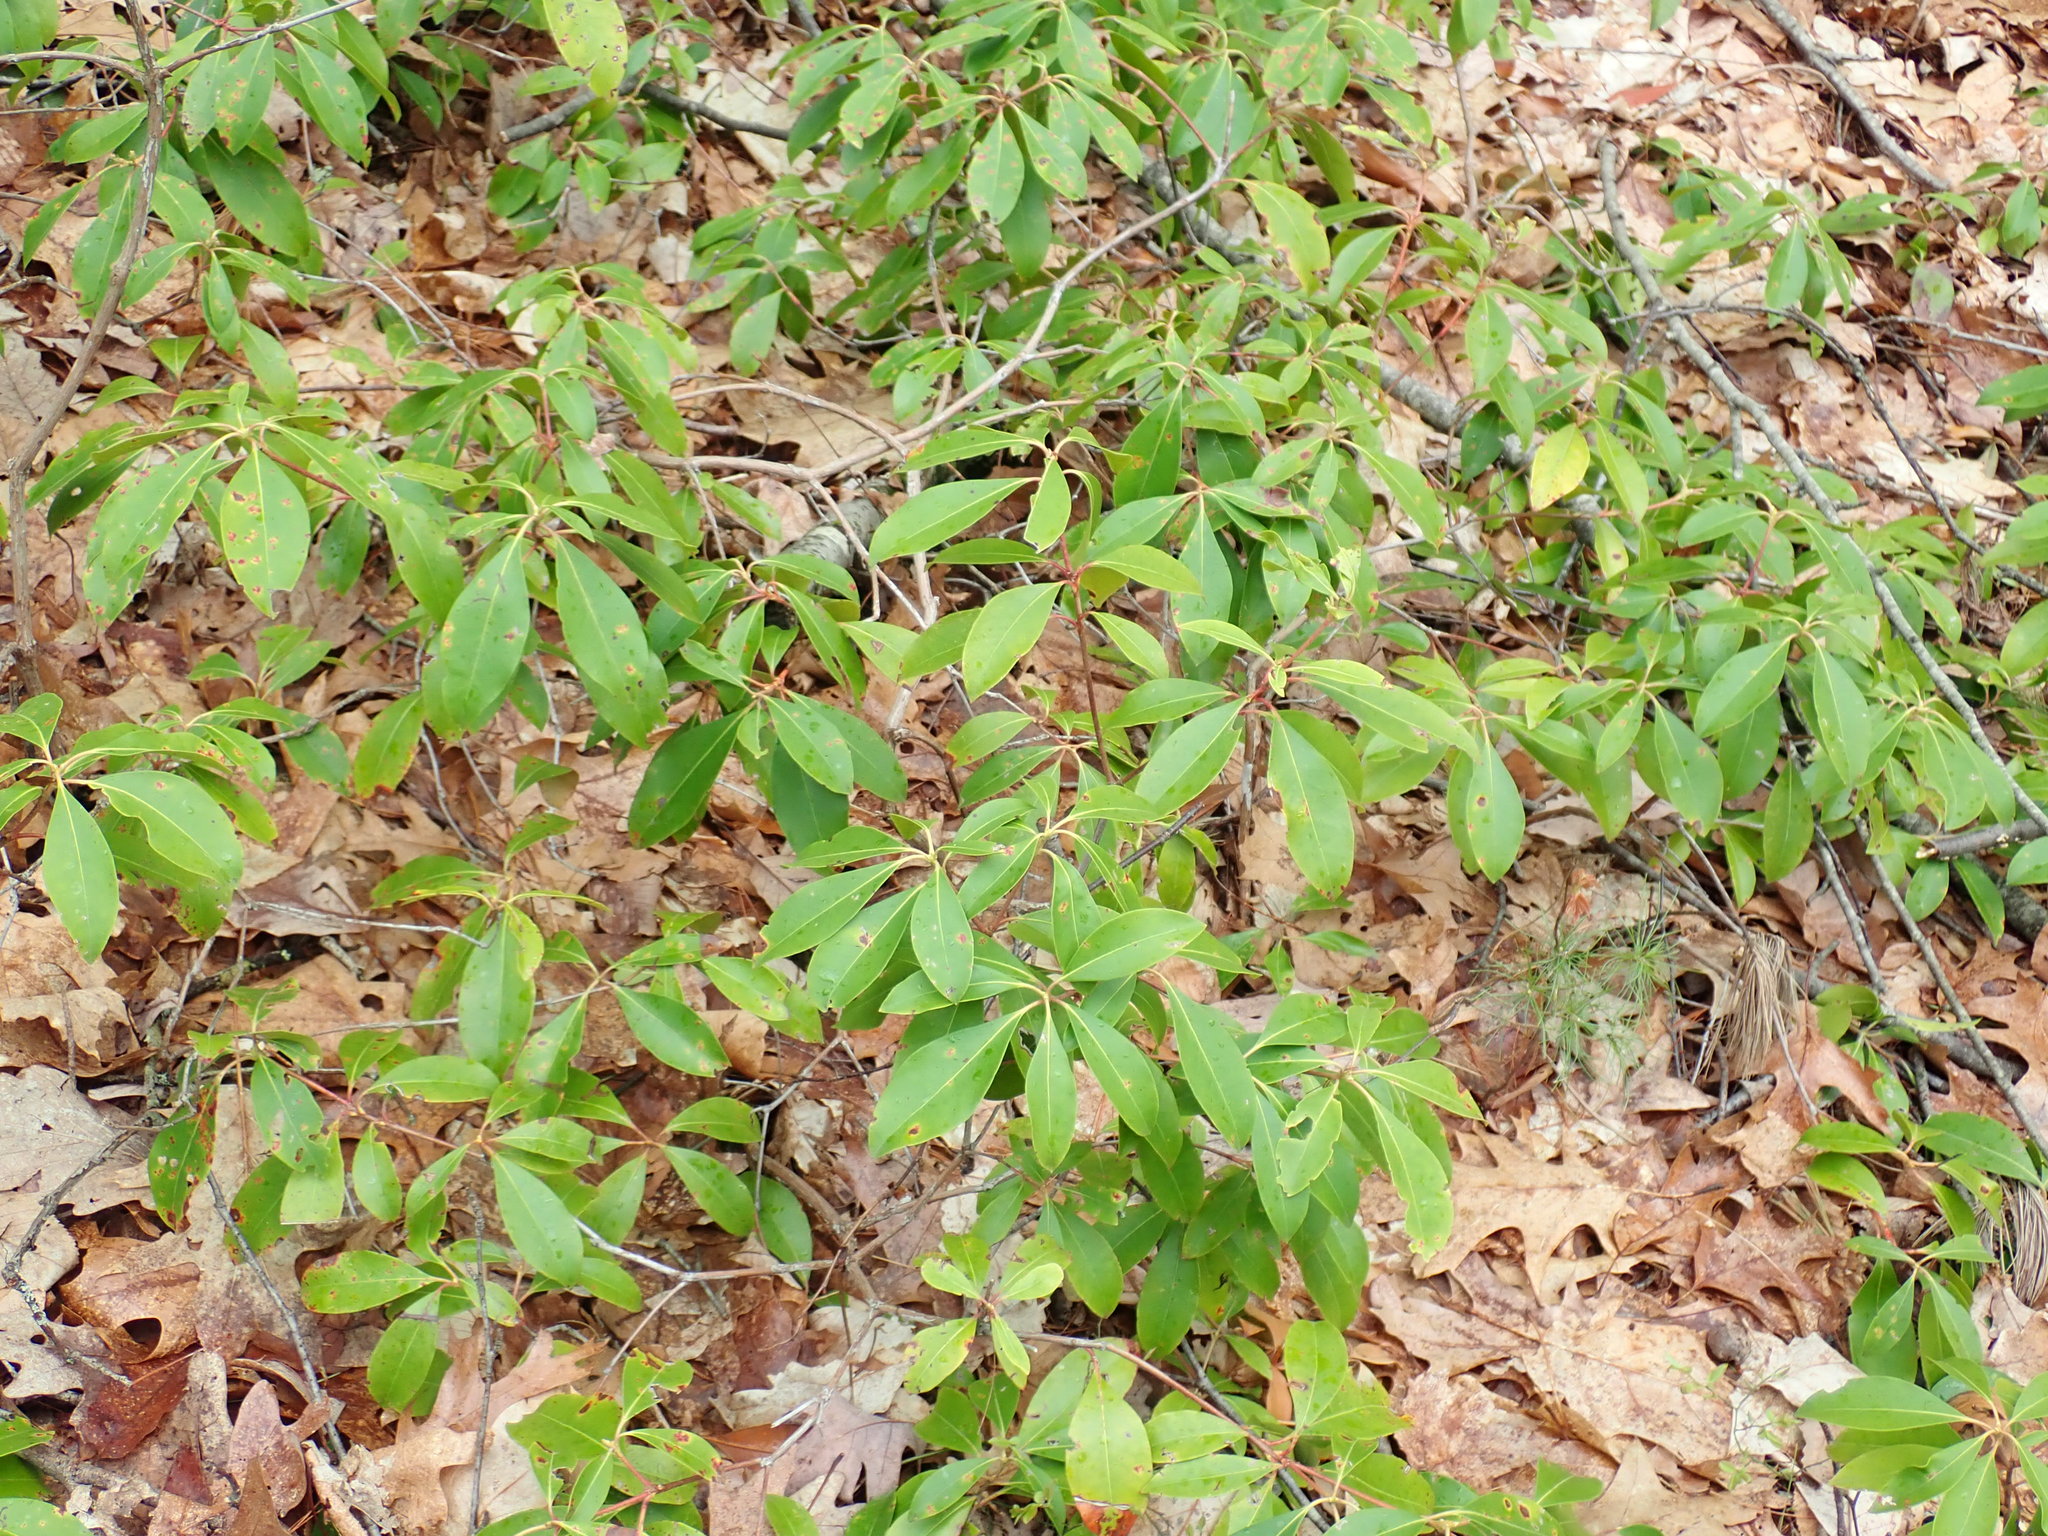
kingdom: Plantae
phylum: Tracheophyta
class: Magnoliopsida
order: Ericales
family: Ericaceae
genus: Kalmia
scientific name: Kalmia latifolia
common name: Mountain-laurel
